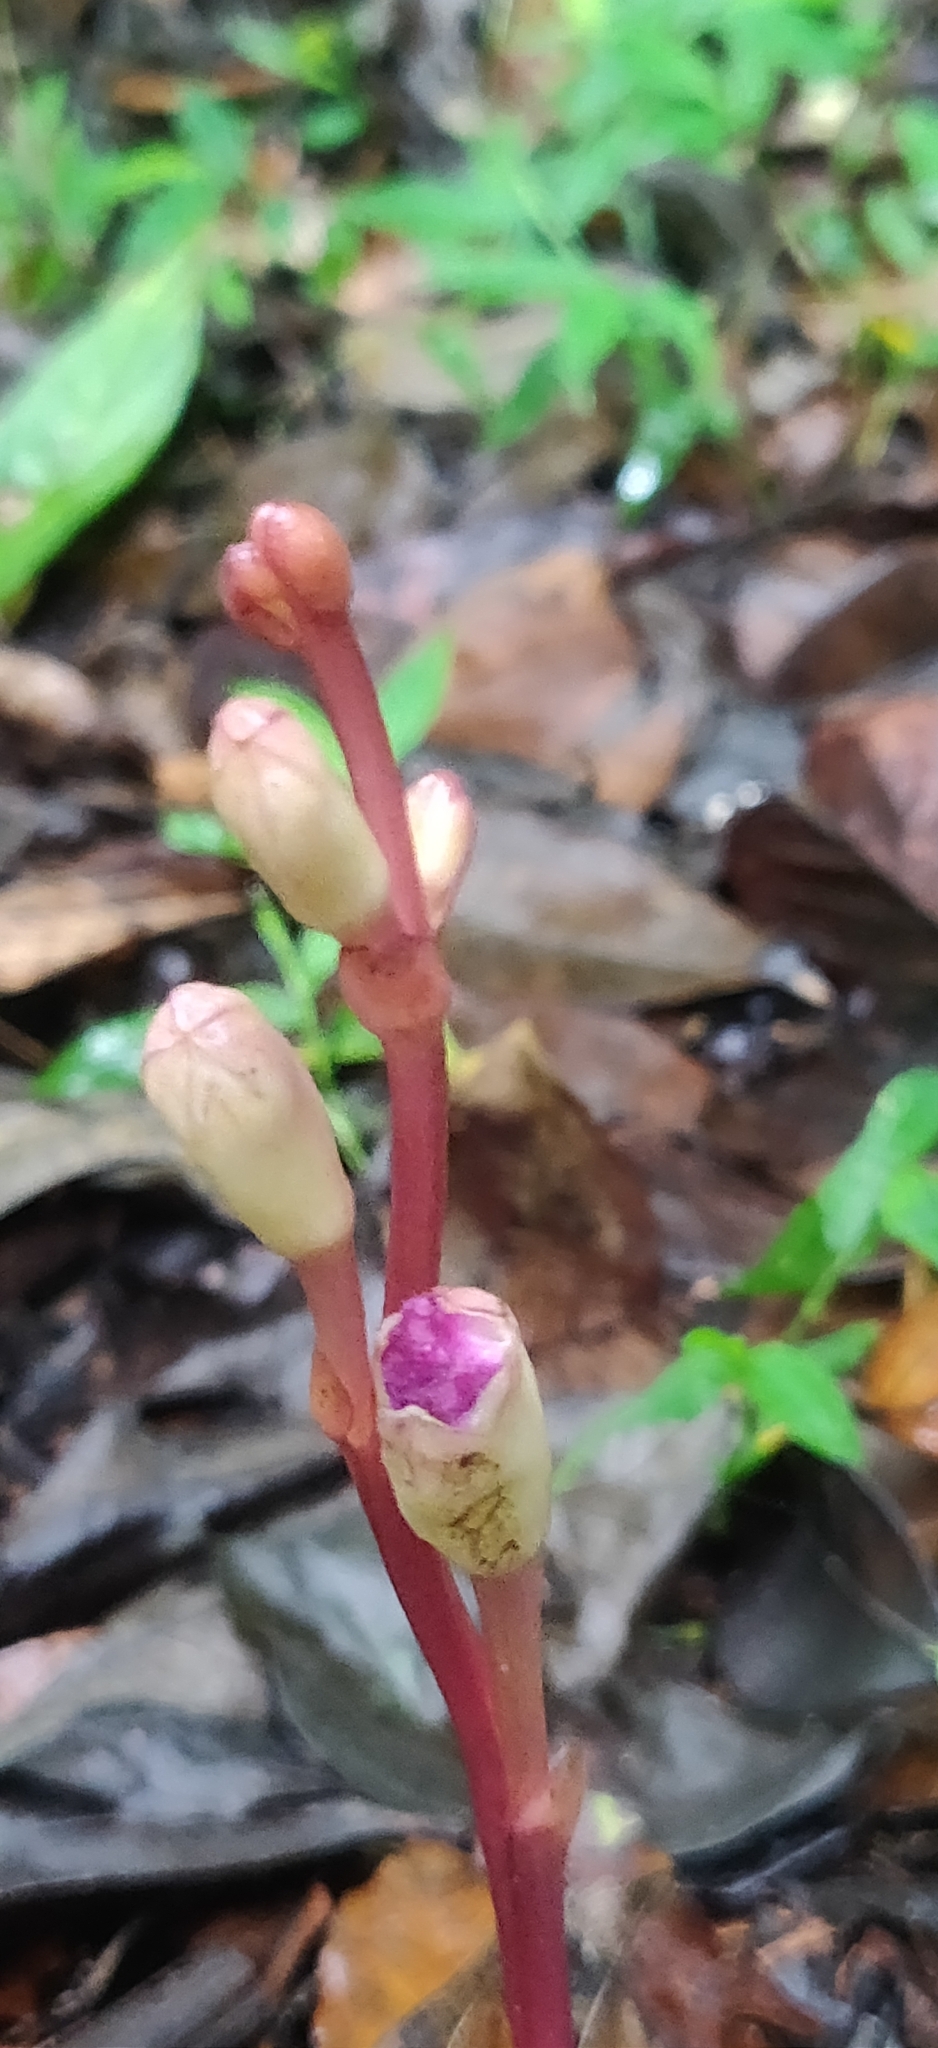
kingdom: Plantae
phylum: Tracheophyta
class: Magnoliopsida
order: Lamiales
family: Orobanchaceae
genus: Christisonia
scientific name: Christisonia tubulosa
